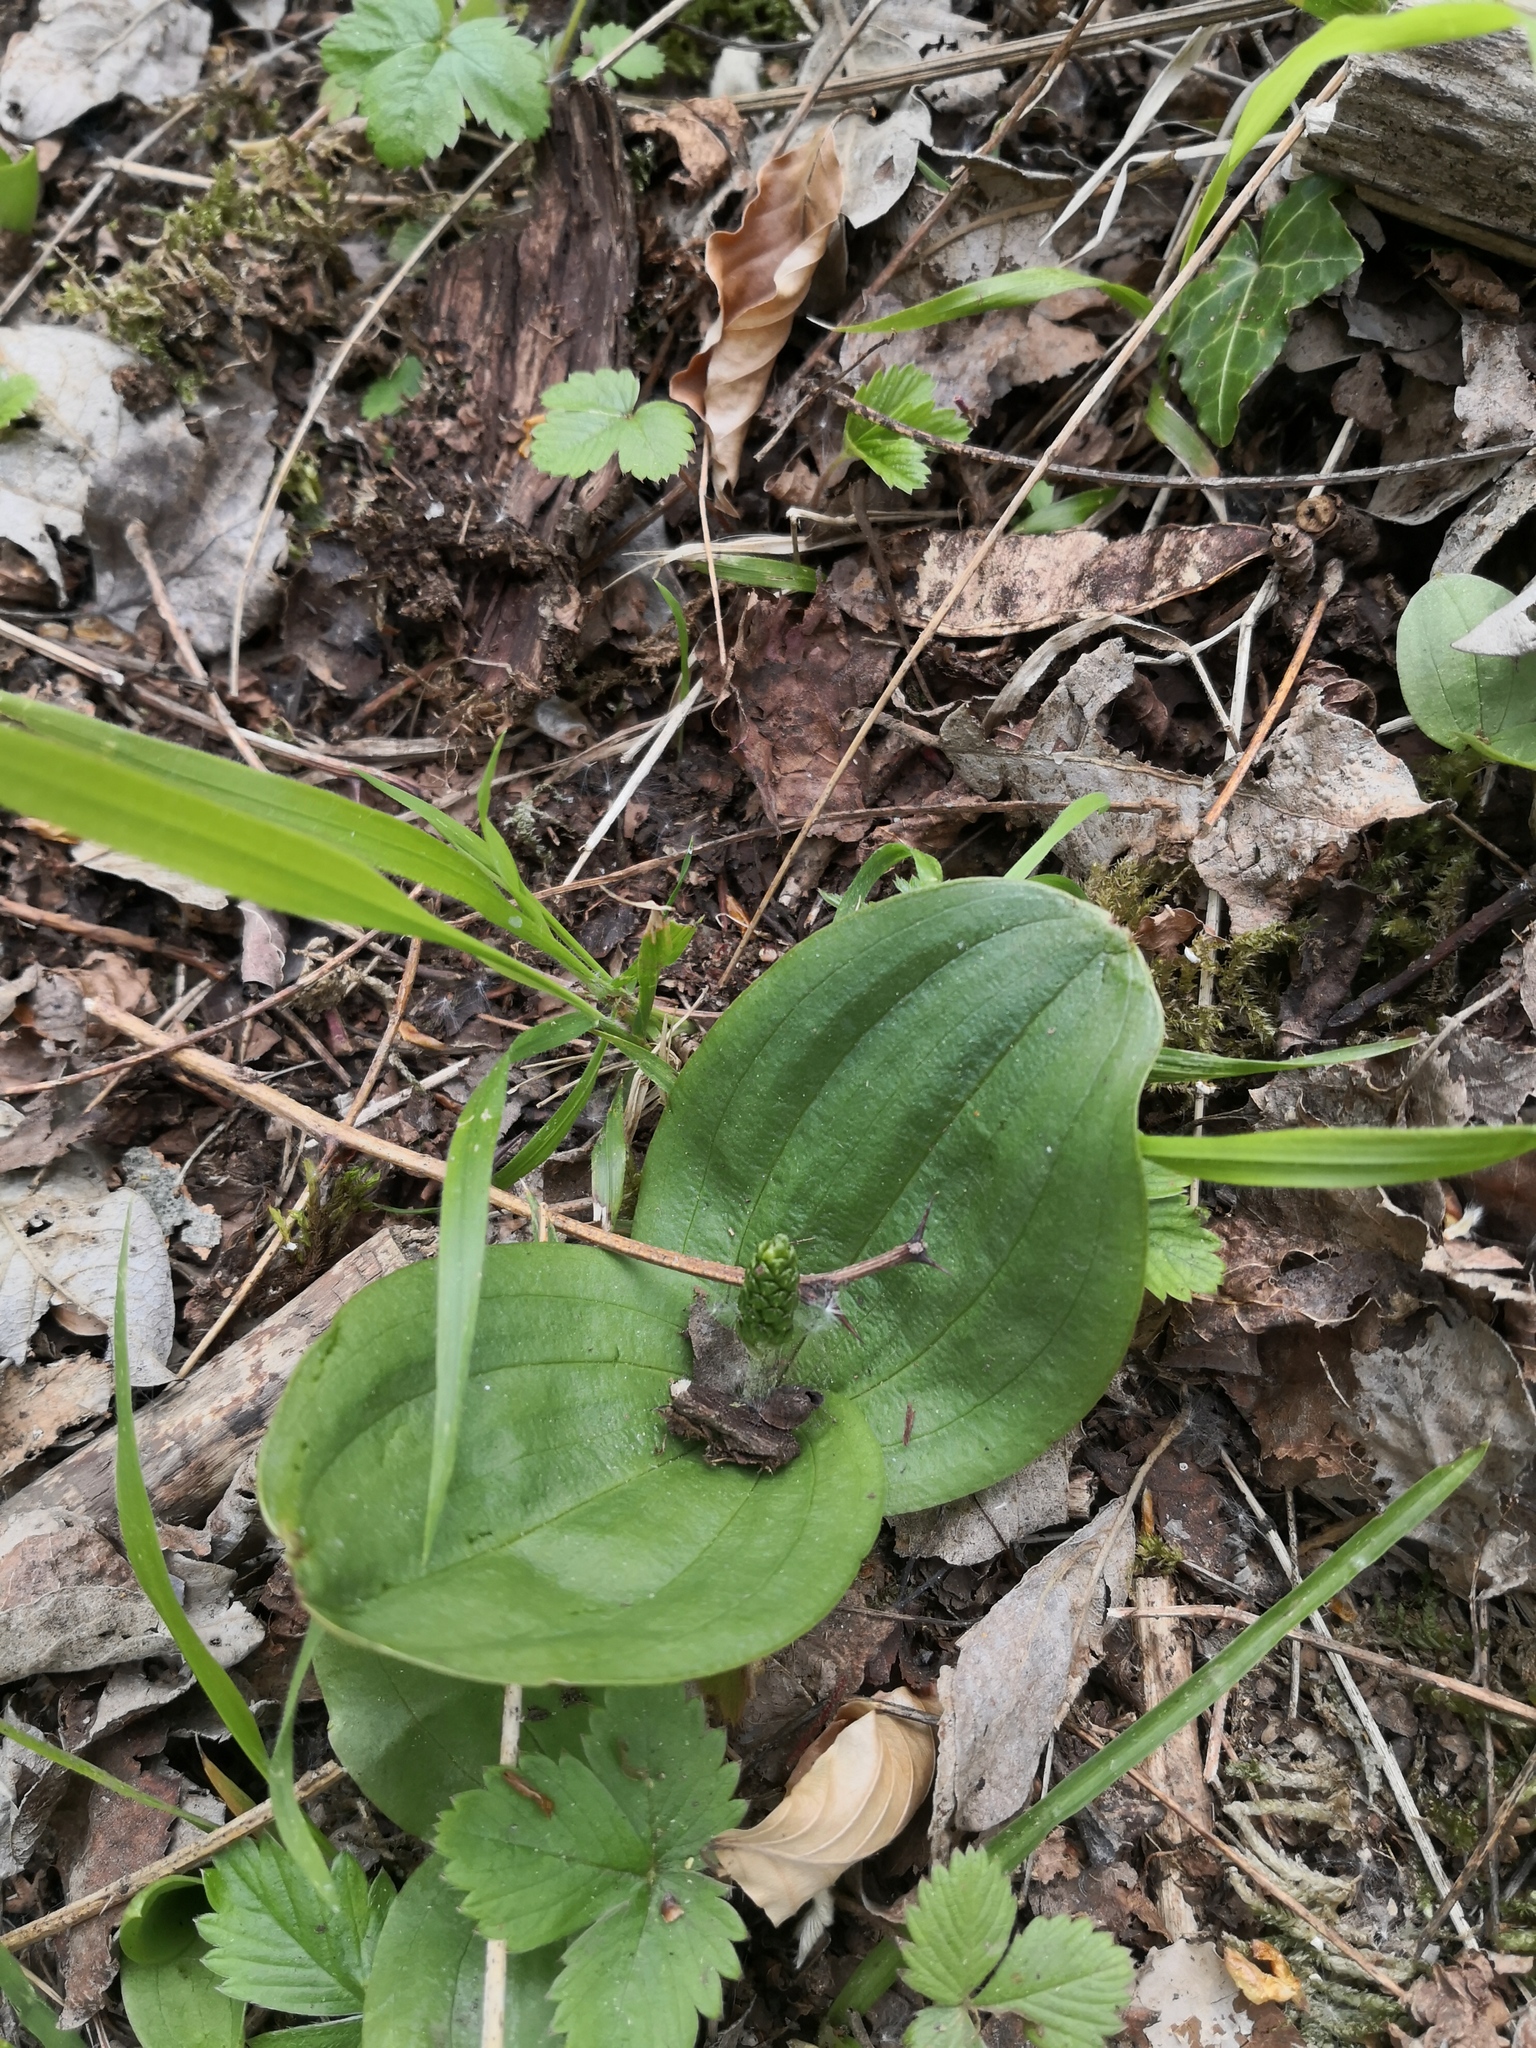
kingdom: Plantae
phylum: Tracheophyta
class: Liliopsida
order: Asparagales
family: Orchidaceae
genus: Neottia
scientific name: Neottia ovata
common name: Common twayblade
